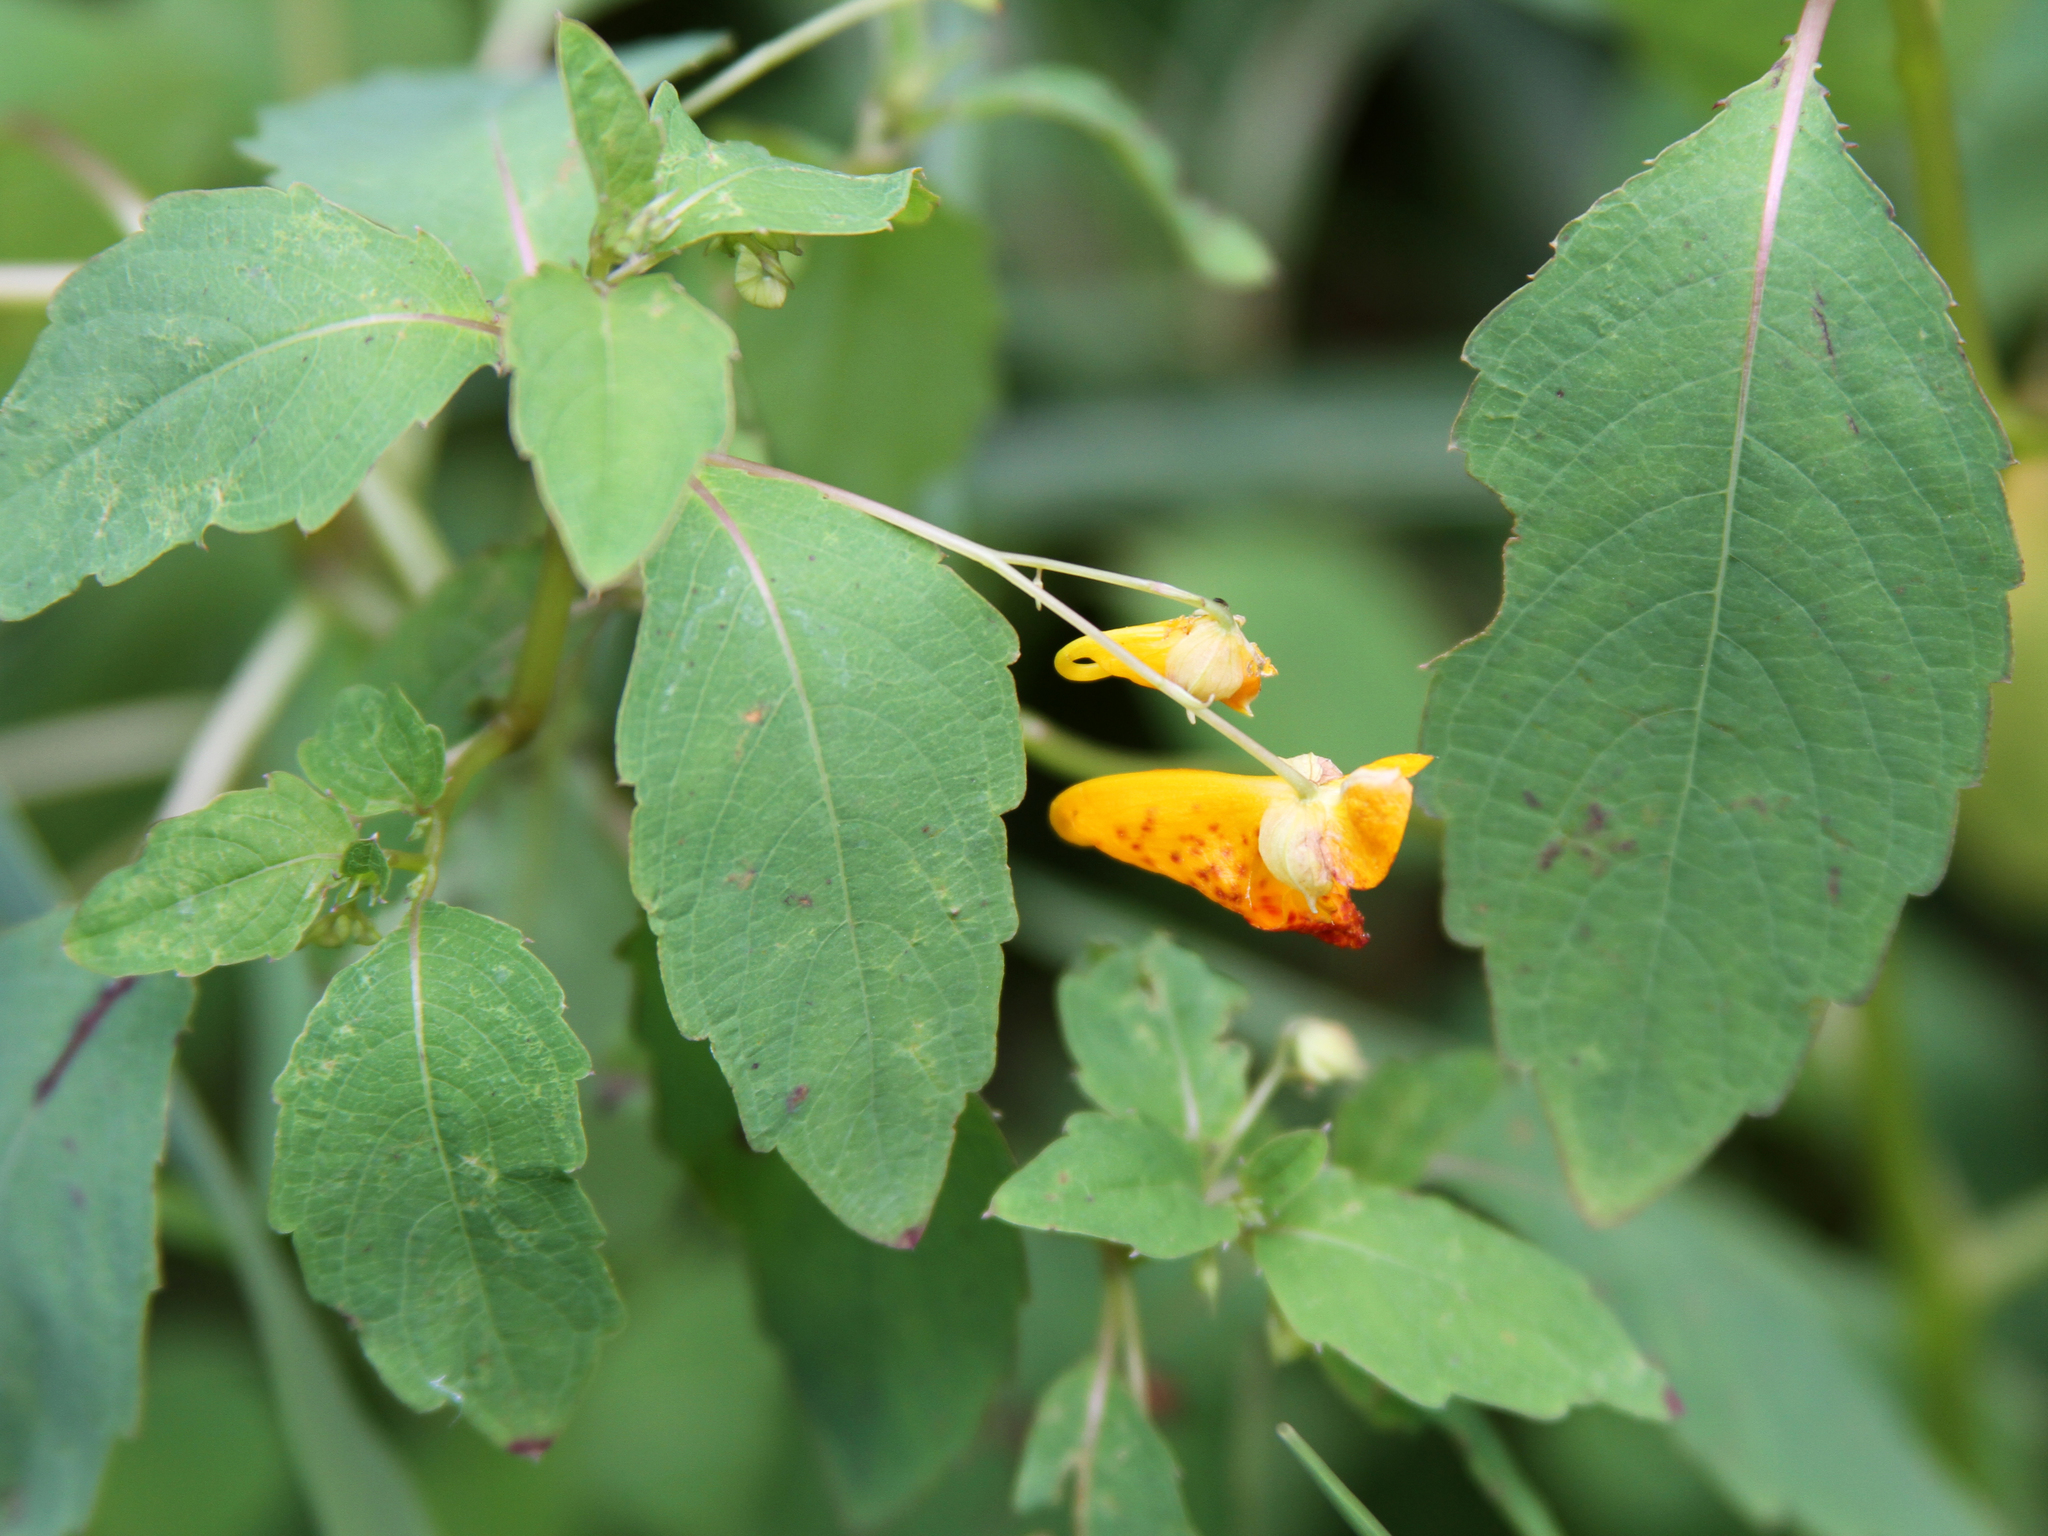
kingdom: Plantae
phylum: Tracheophyta
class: Magnoliopsida
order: Ericales
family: Balsaminaceae
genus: Impatiens
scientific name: Impatiens capensis
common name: Orange balsam
